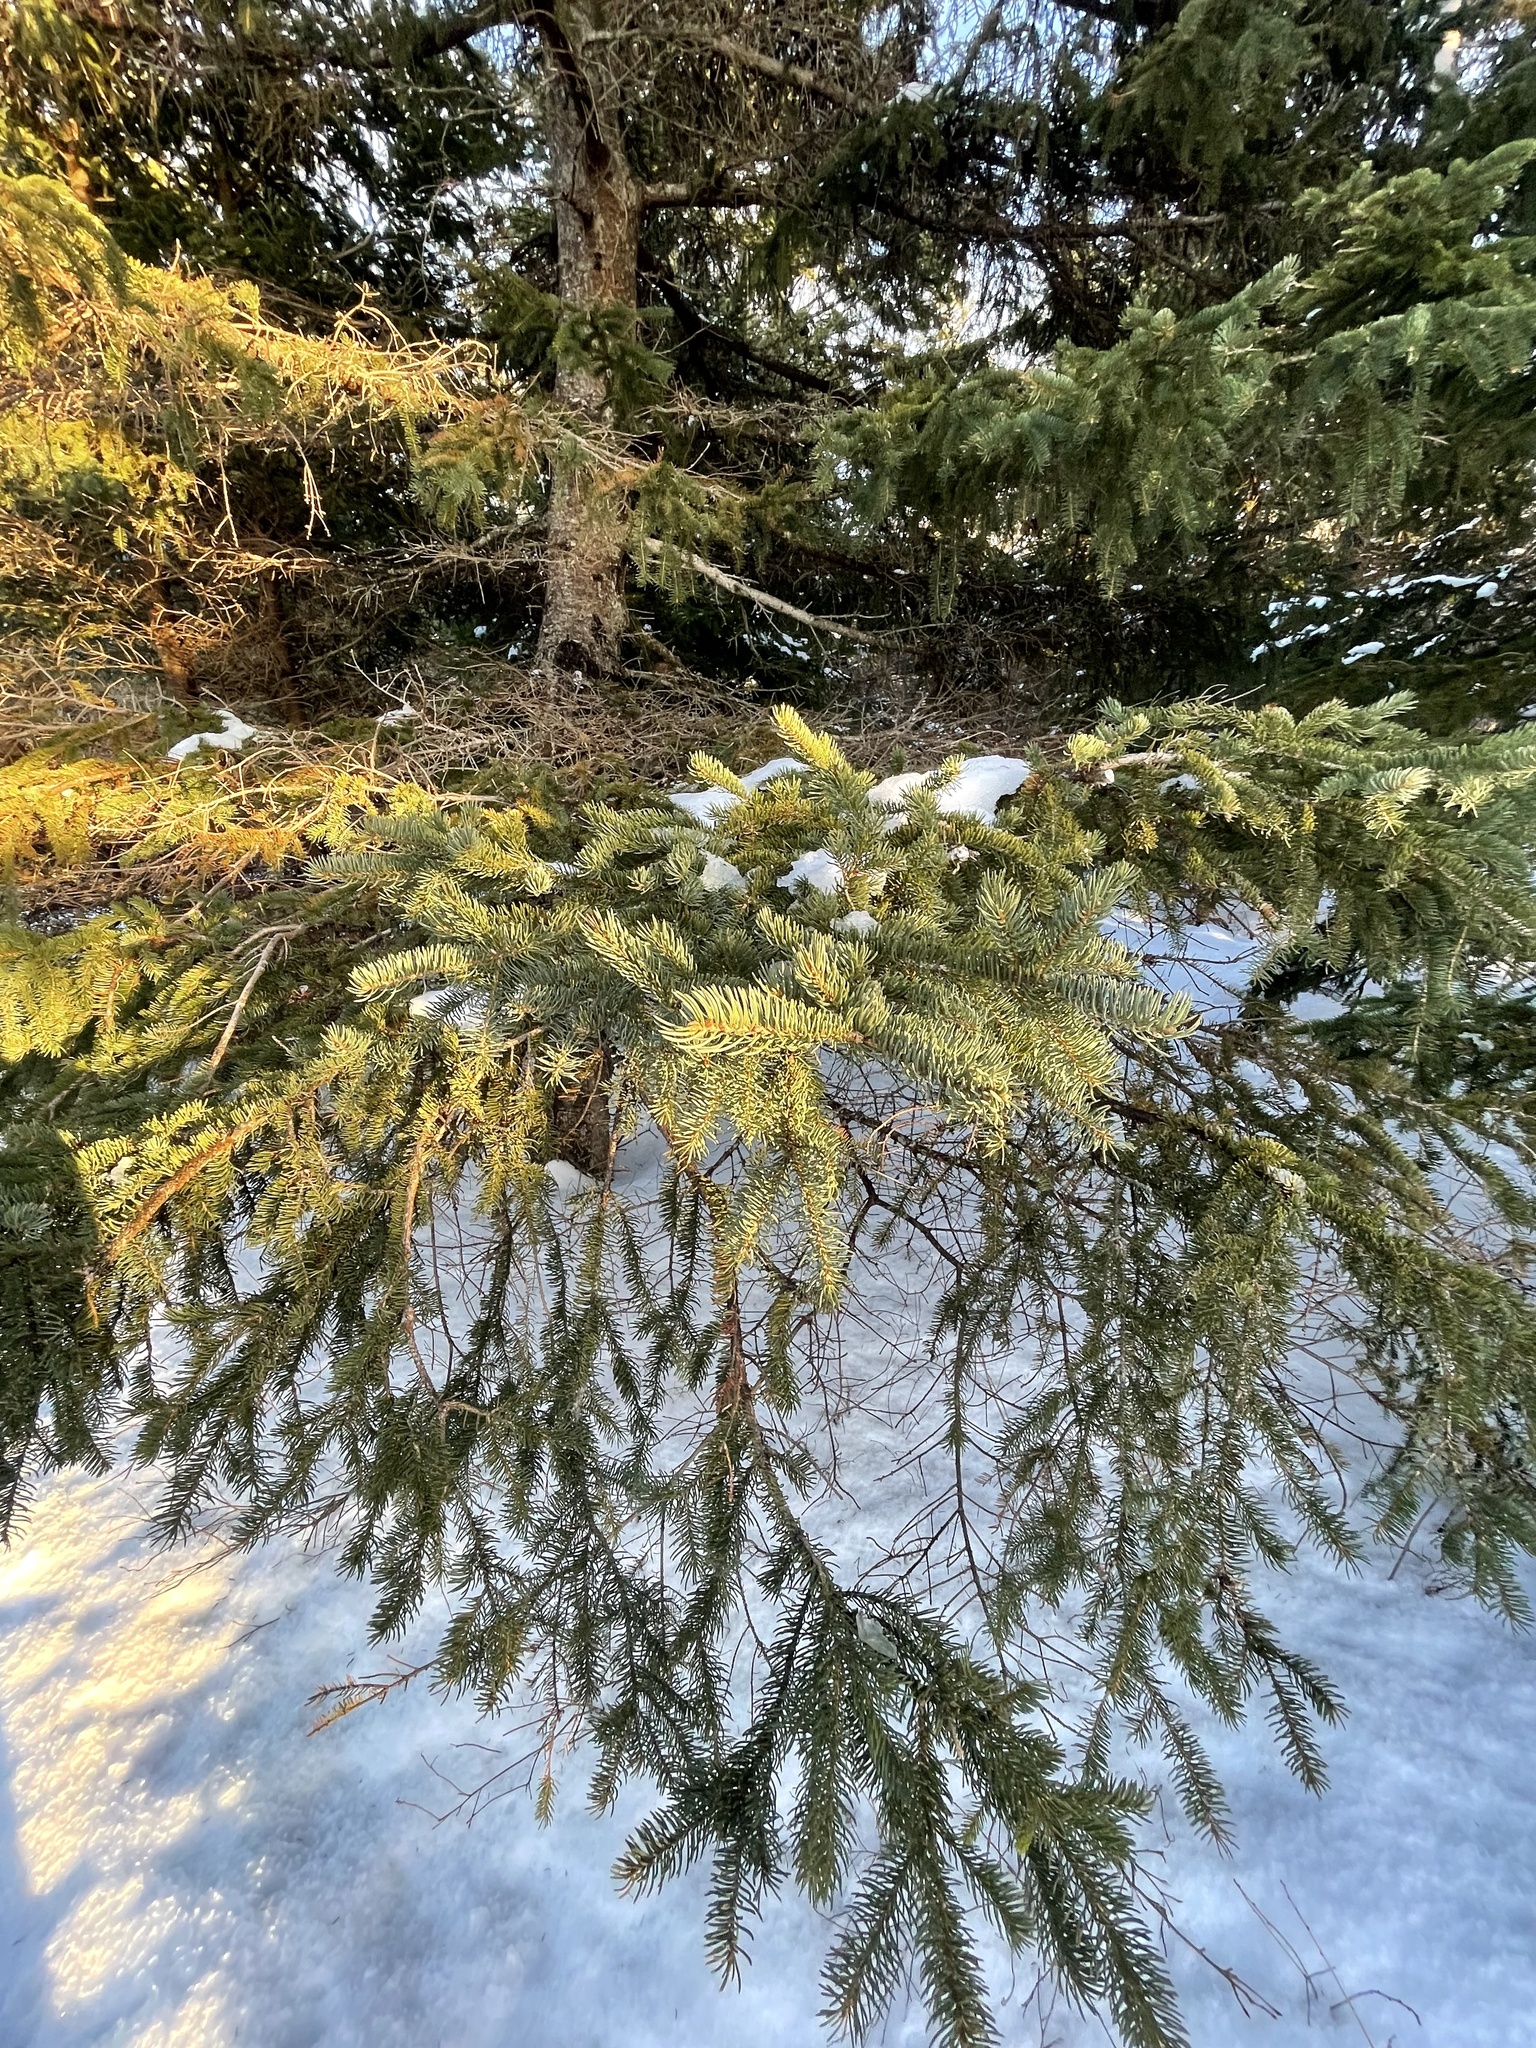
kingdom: Plantae
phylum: Tracheophyta
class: Pinopsida
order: Pinales
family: Pinaceae
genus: Picea
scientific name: Picea glauca
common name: White spruce
